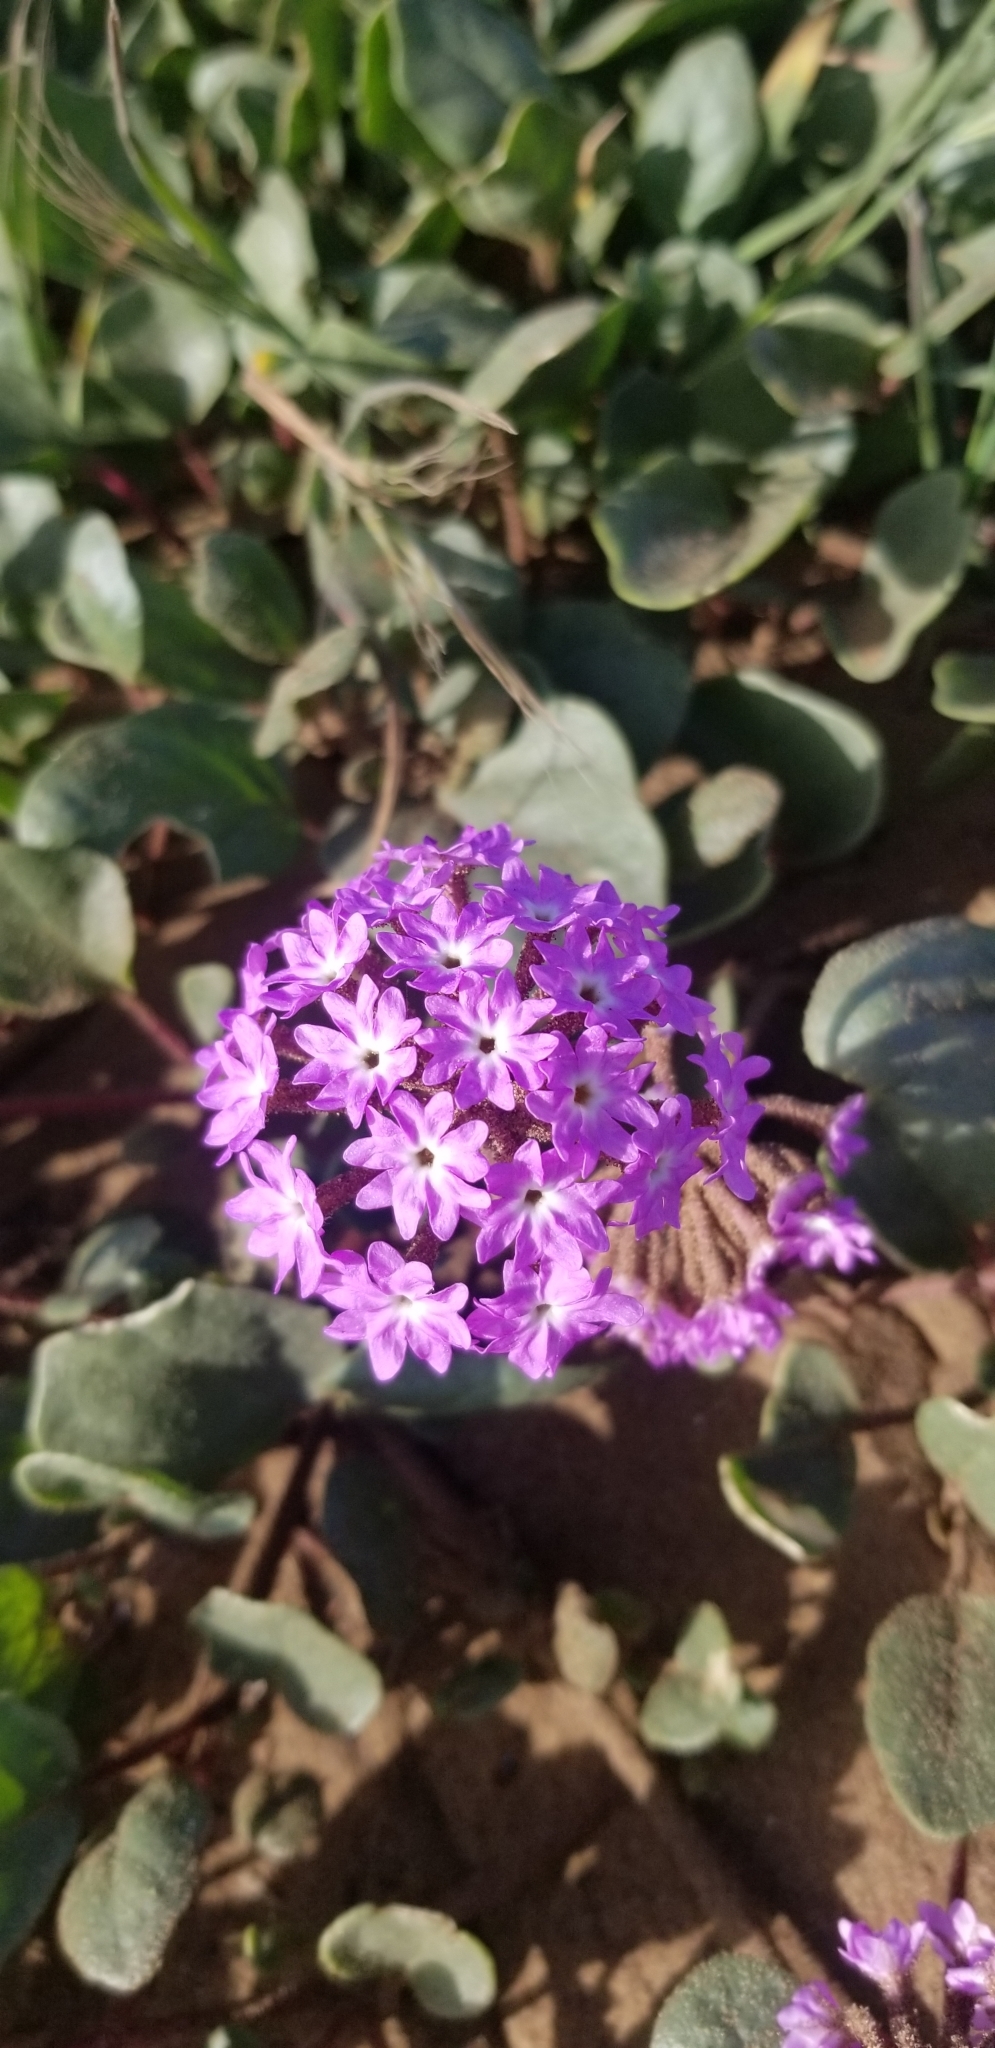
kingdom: Plantae
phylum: Tracheophyta
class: Magnoliopsida
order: Caryophyllales
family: Nyctaginaceae
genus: Abronia
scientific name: Abronia umbellata
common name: Sand-verbena
